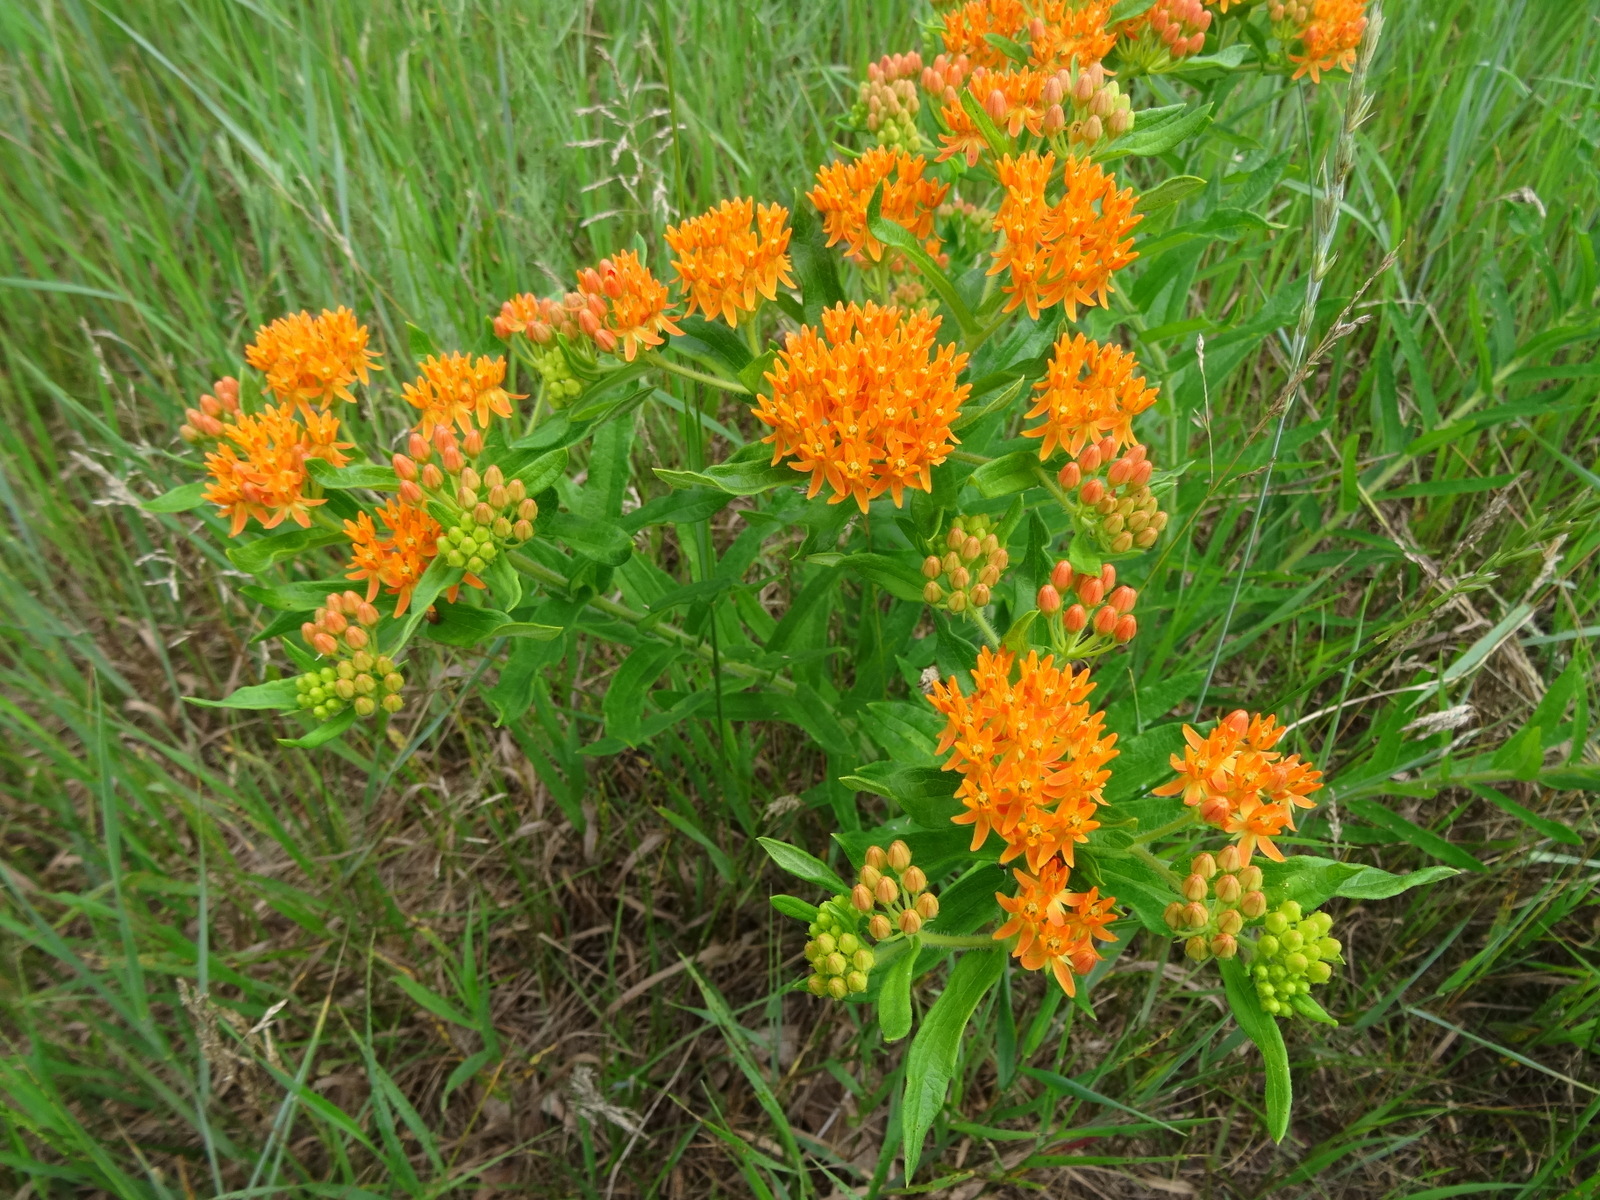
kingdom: Plantae
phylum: Tracheophyta
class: Magnoliopsida
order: Gentianales
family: Apocynaceae
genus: Asclepias
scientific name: Asclepias tuberosa
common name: Butterfly milkweed
